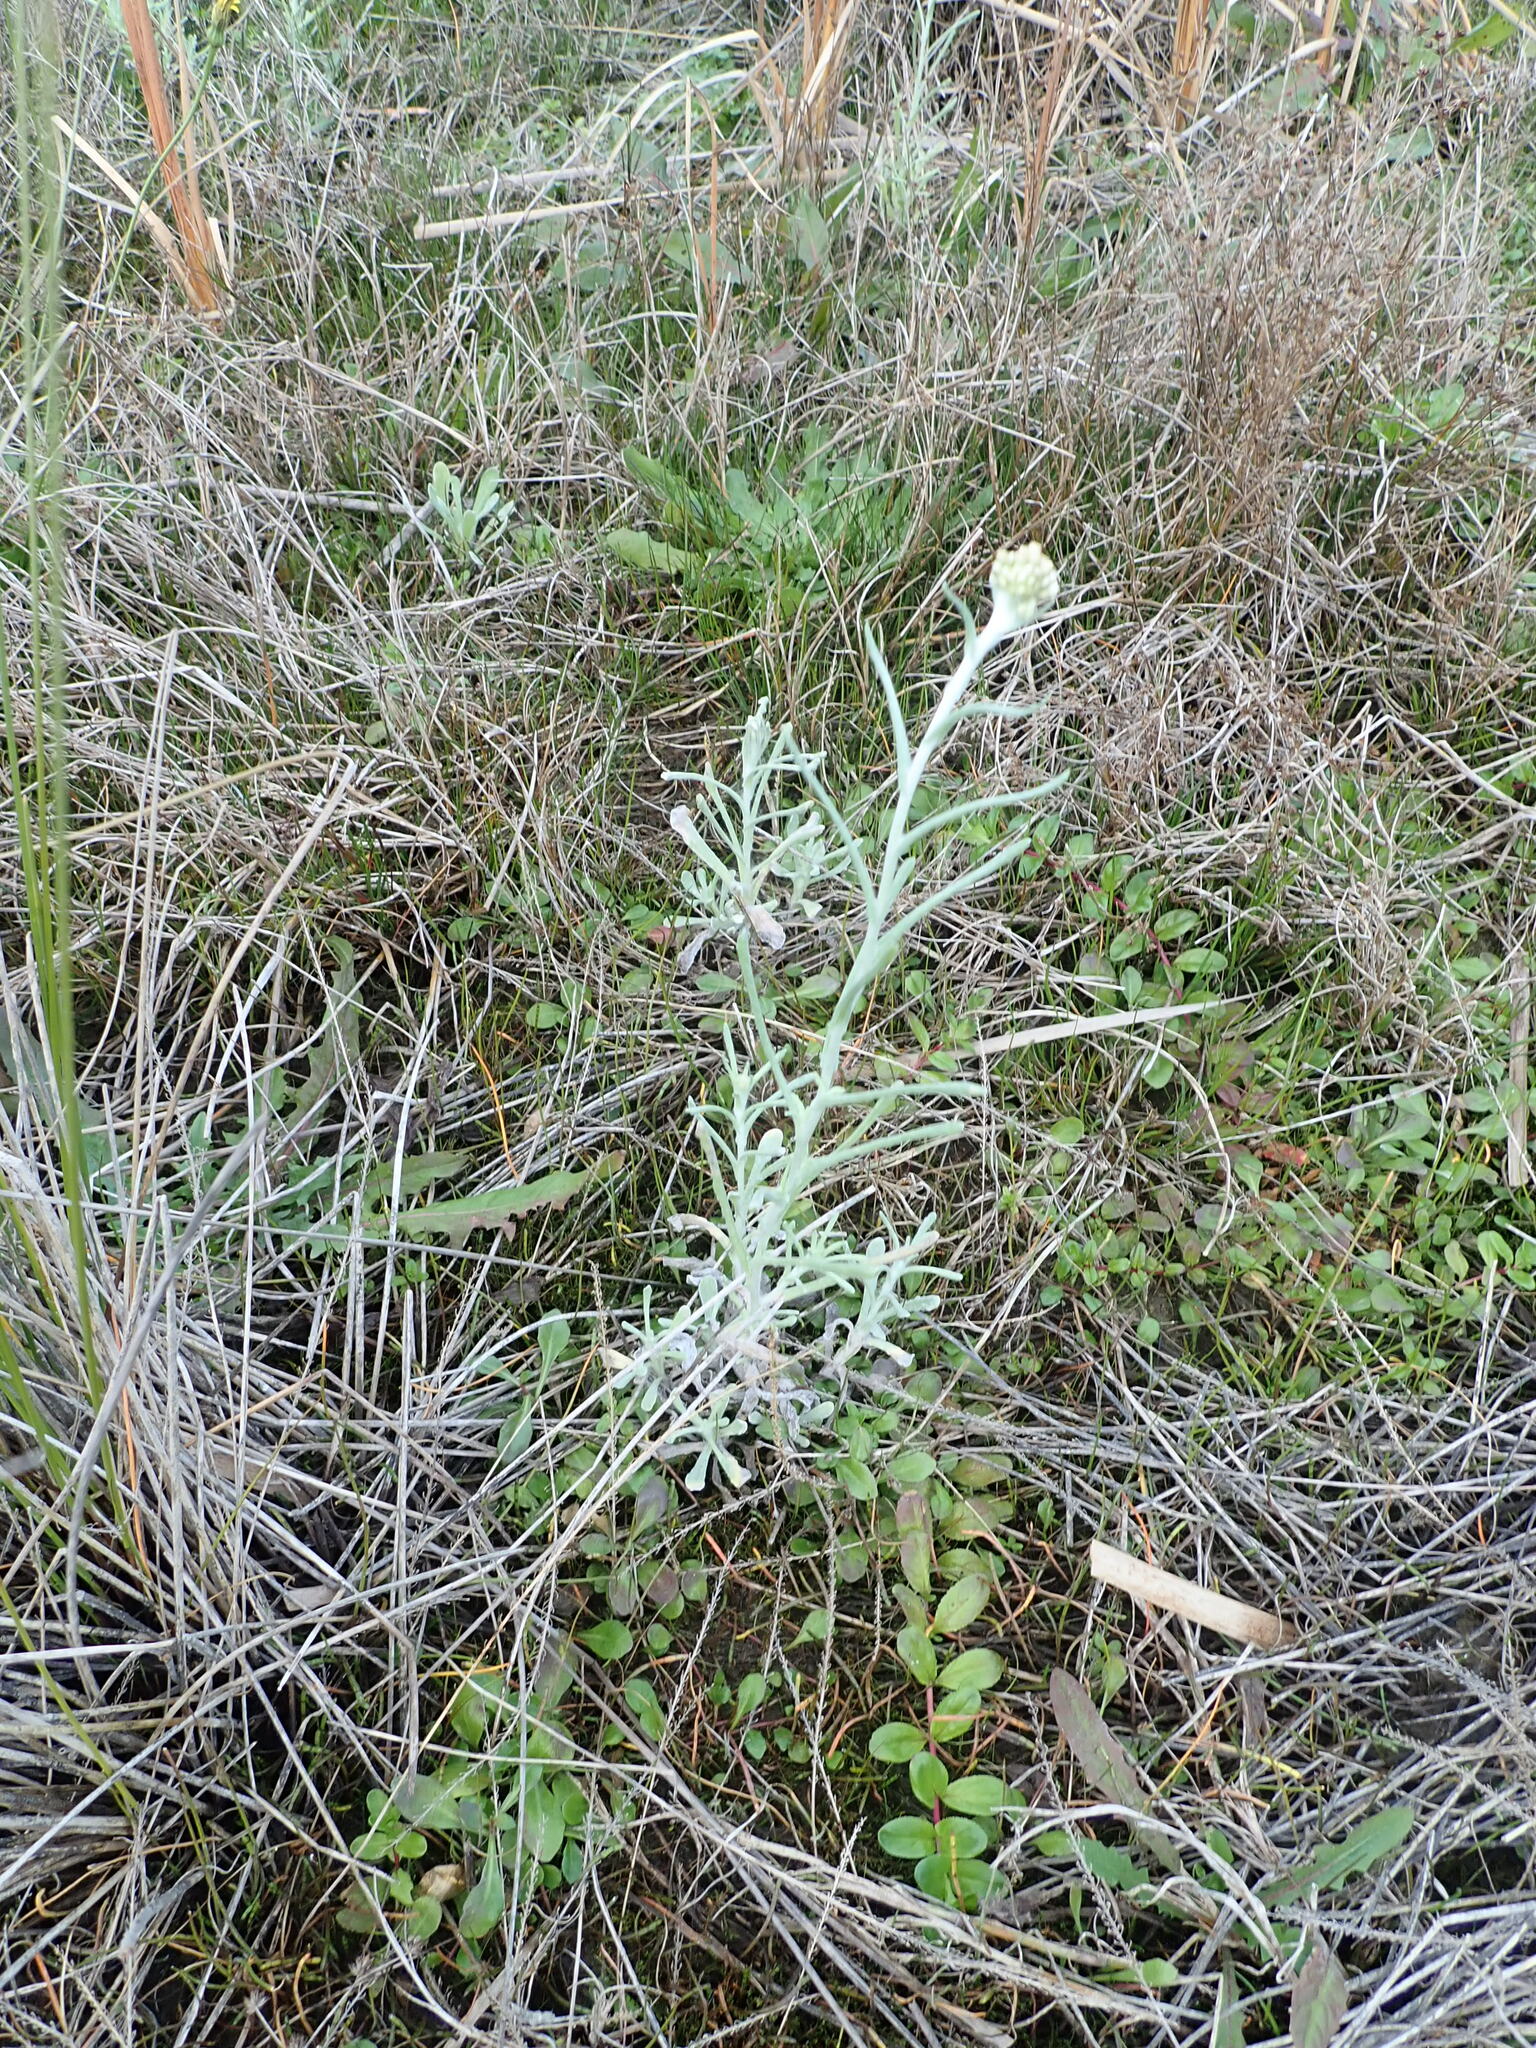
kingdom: Plantae
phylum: Tracheophyta
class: Magnoliopsida
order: Asterales
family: Asteraceae
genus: Helichrysum
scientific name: Helichrysum luteoalbum
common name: Daisy
